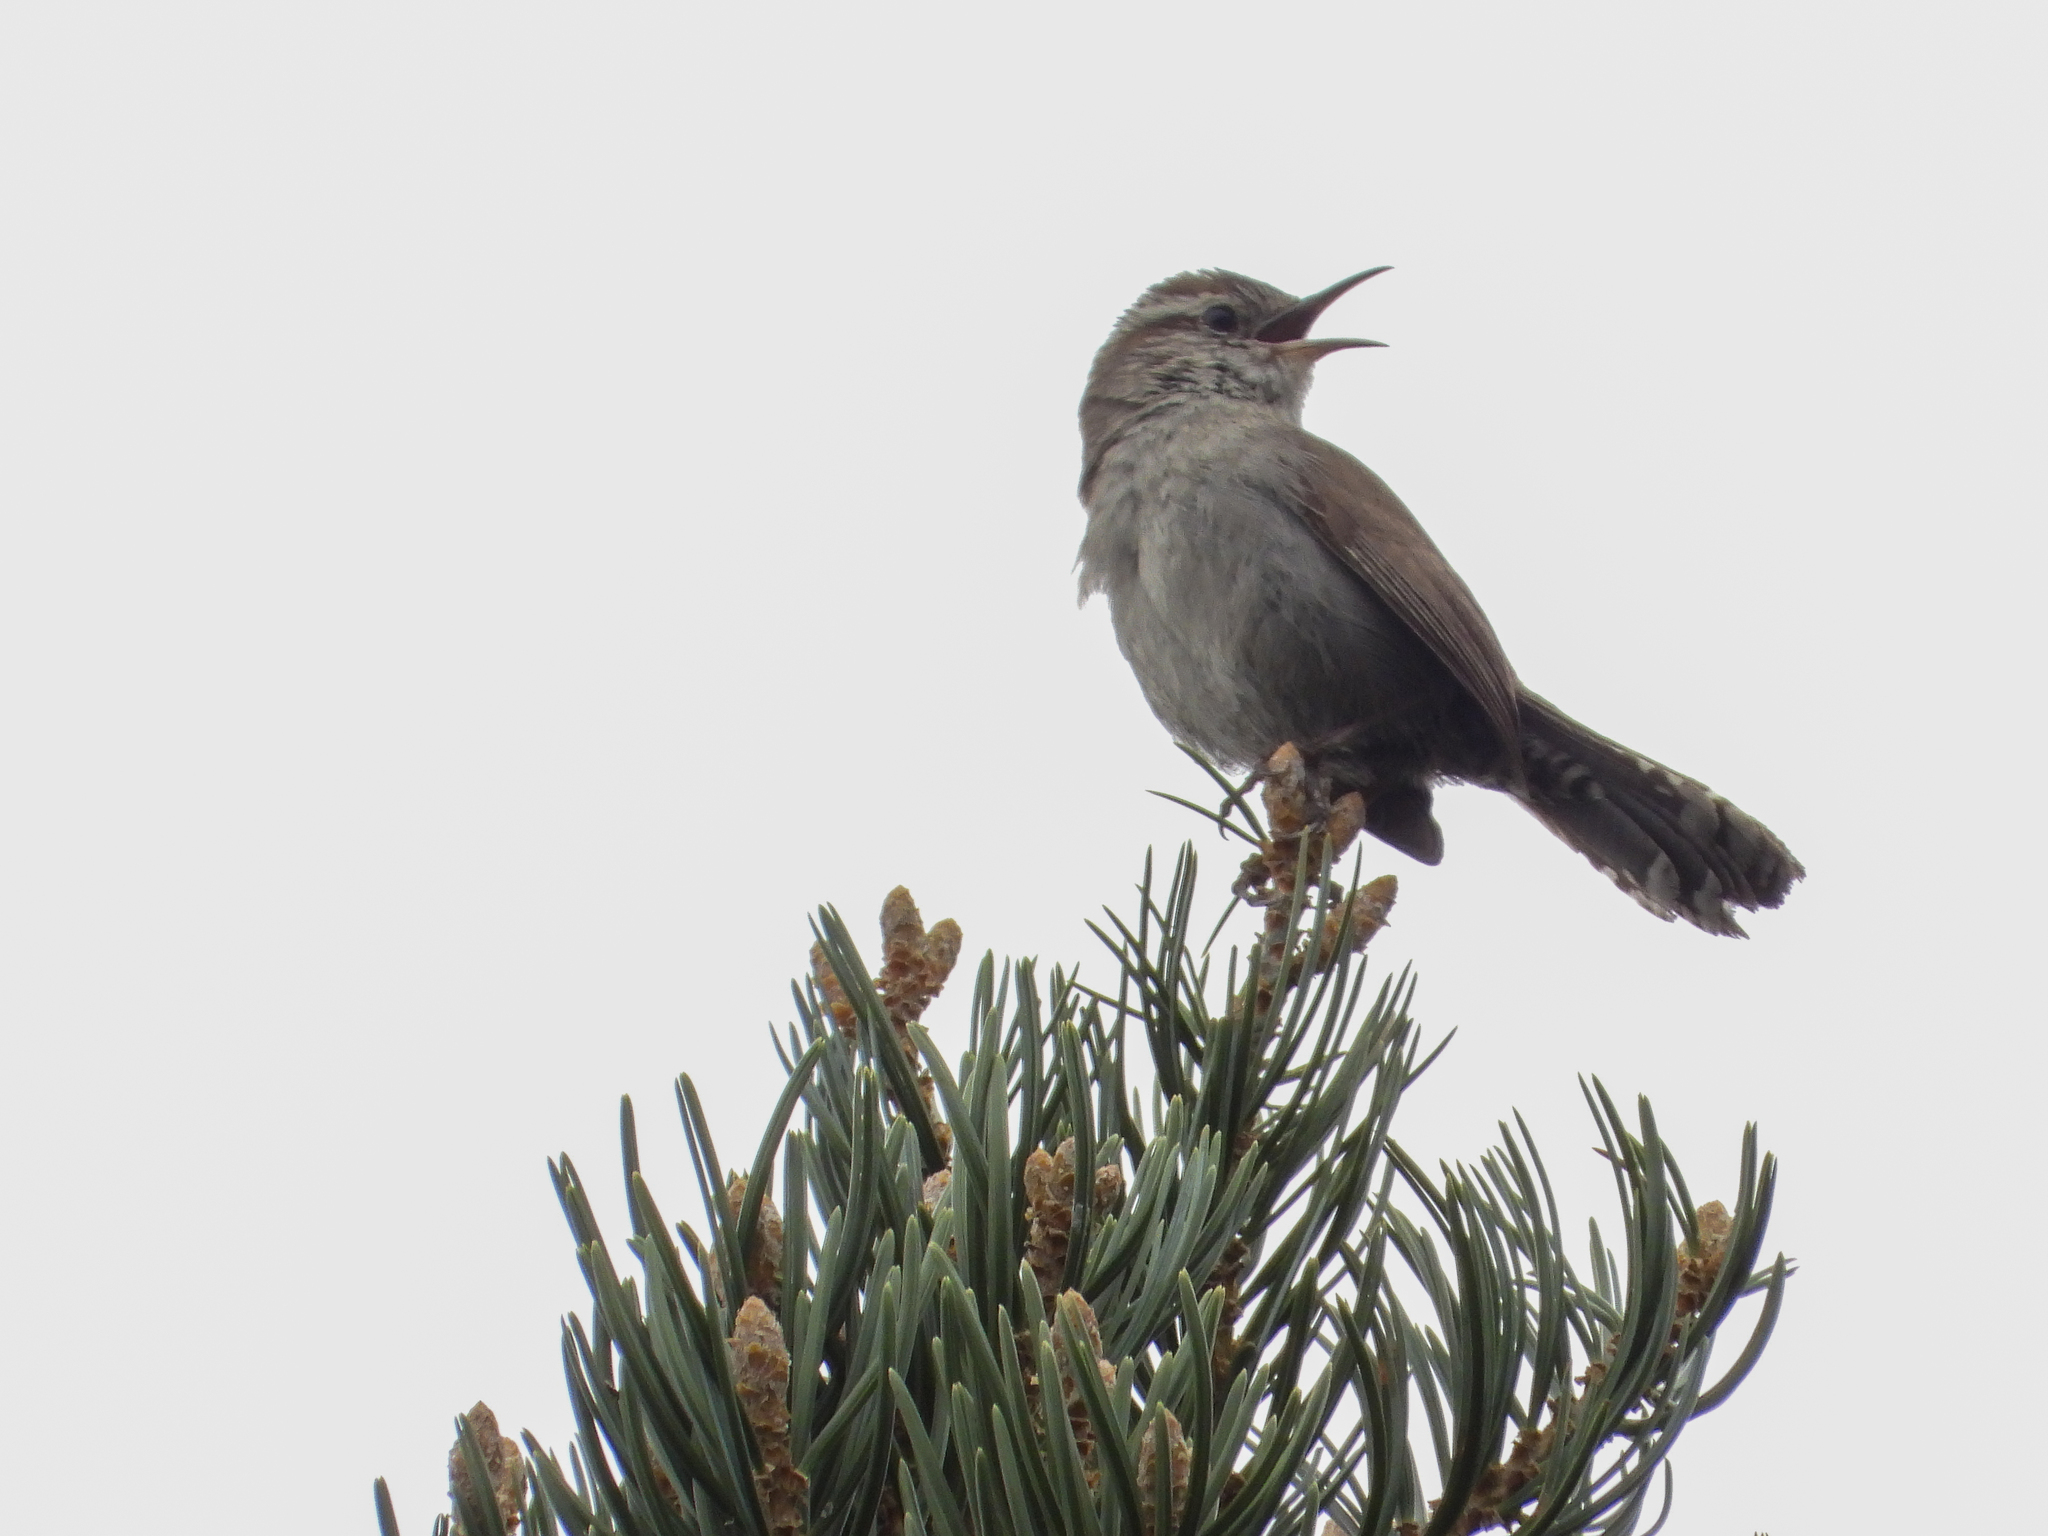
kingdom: Animalia
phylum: Chordata
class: Aves
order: Passeriformes
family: Troglodytidae
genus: Thryomanes
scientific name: Thryomanes bewickii
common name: Bewick's wren
